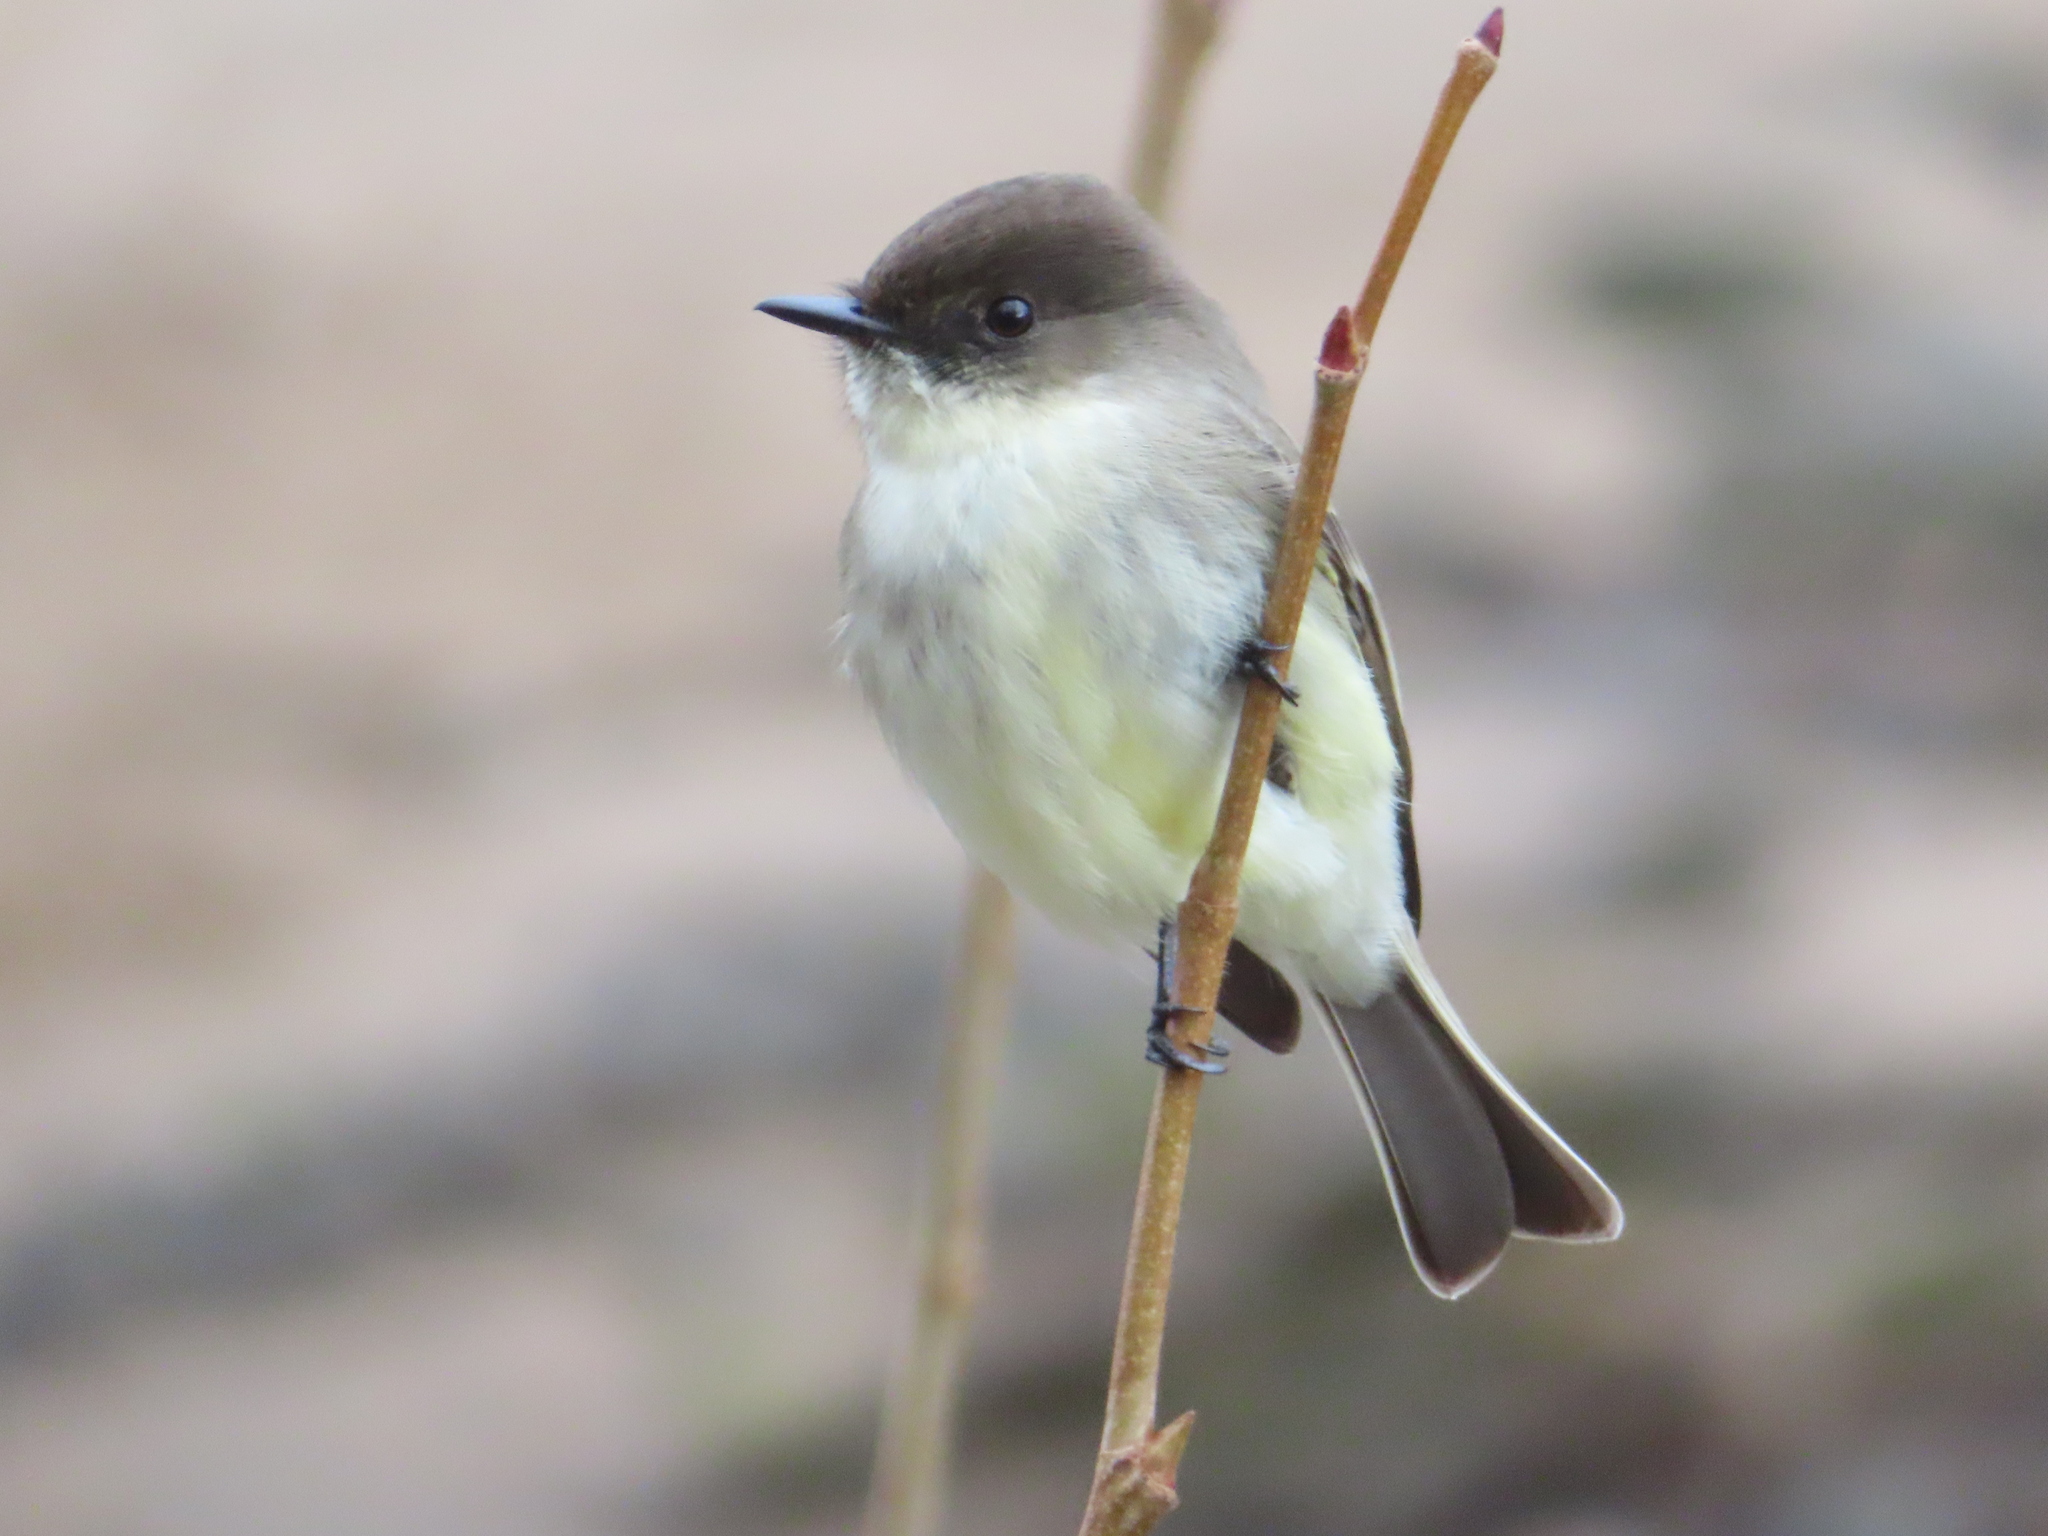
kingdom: Animalia
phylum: Chordata
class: Aves
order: Passeriformes
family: Tyrannidae
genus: Sayornis
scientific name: Sayornis phoebe
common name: Eastern phoebe
